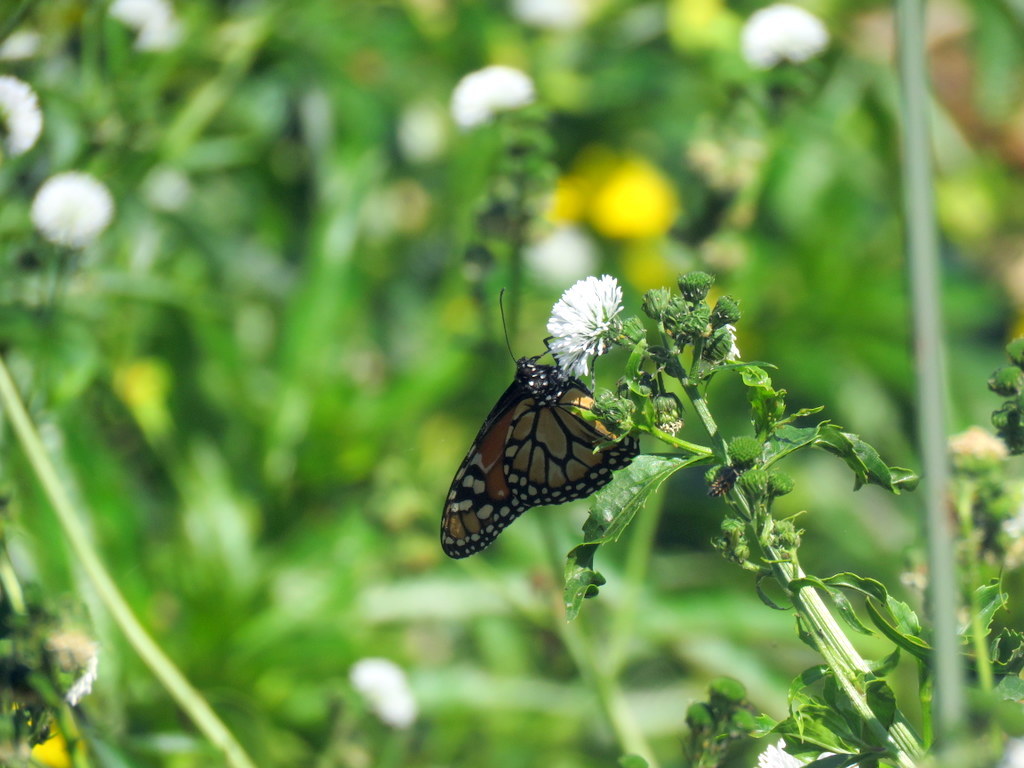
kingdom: Animalia
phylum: Arthropoda
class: Insecta
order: Lepidoptera
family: Nymphalidae
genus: Danaus
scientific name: Danaus erippus
